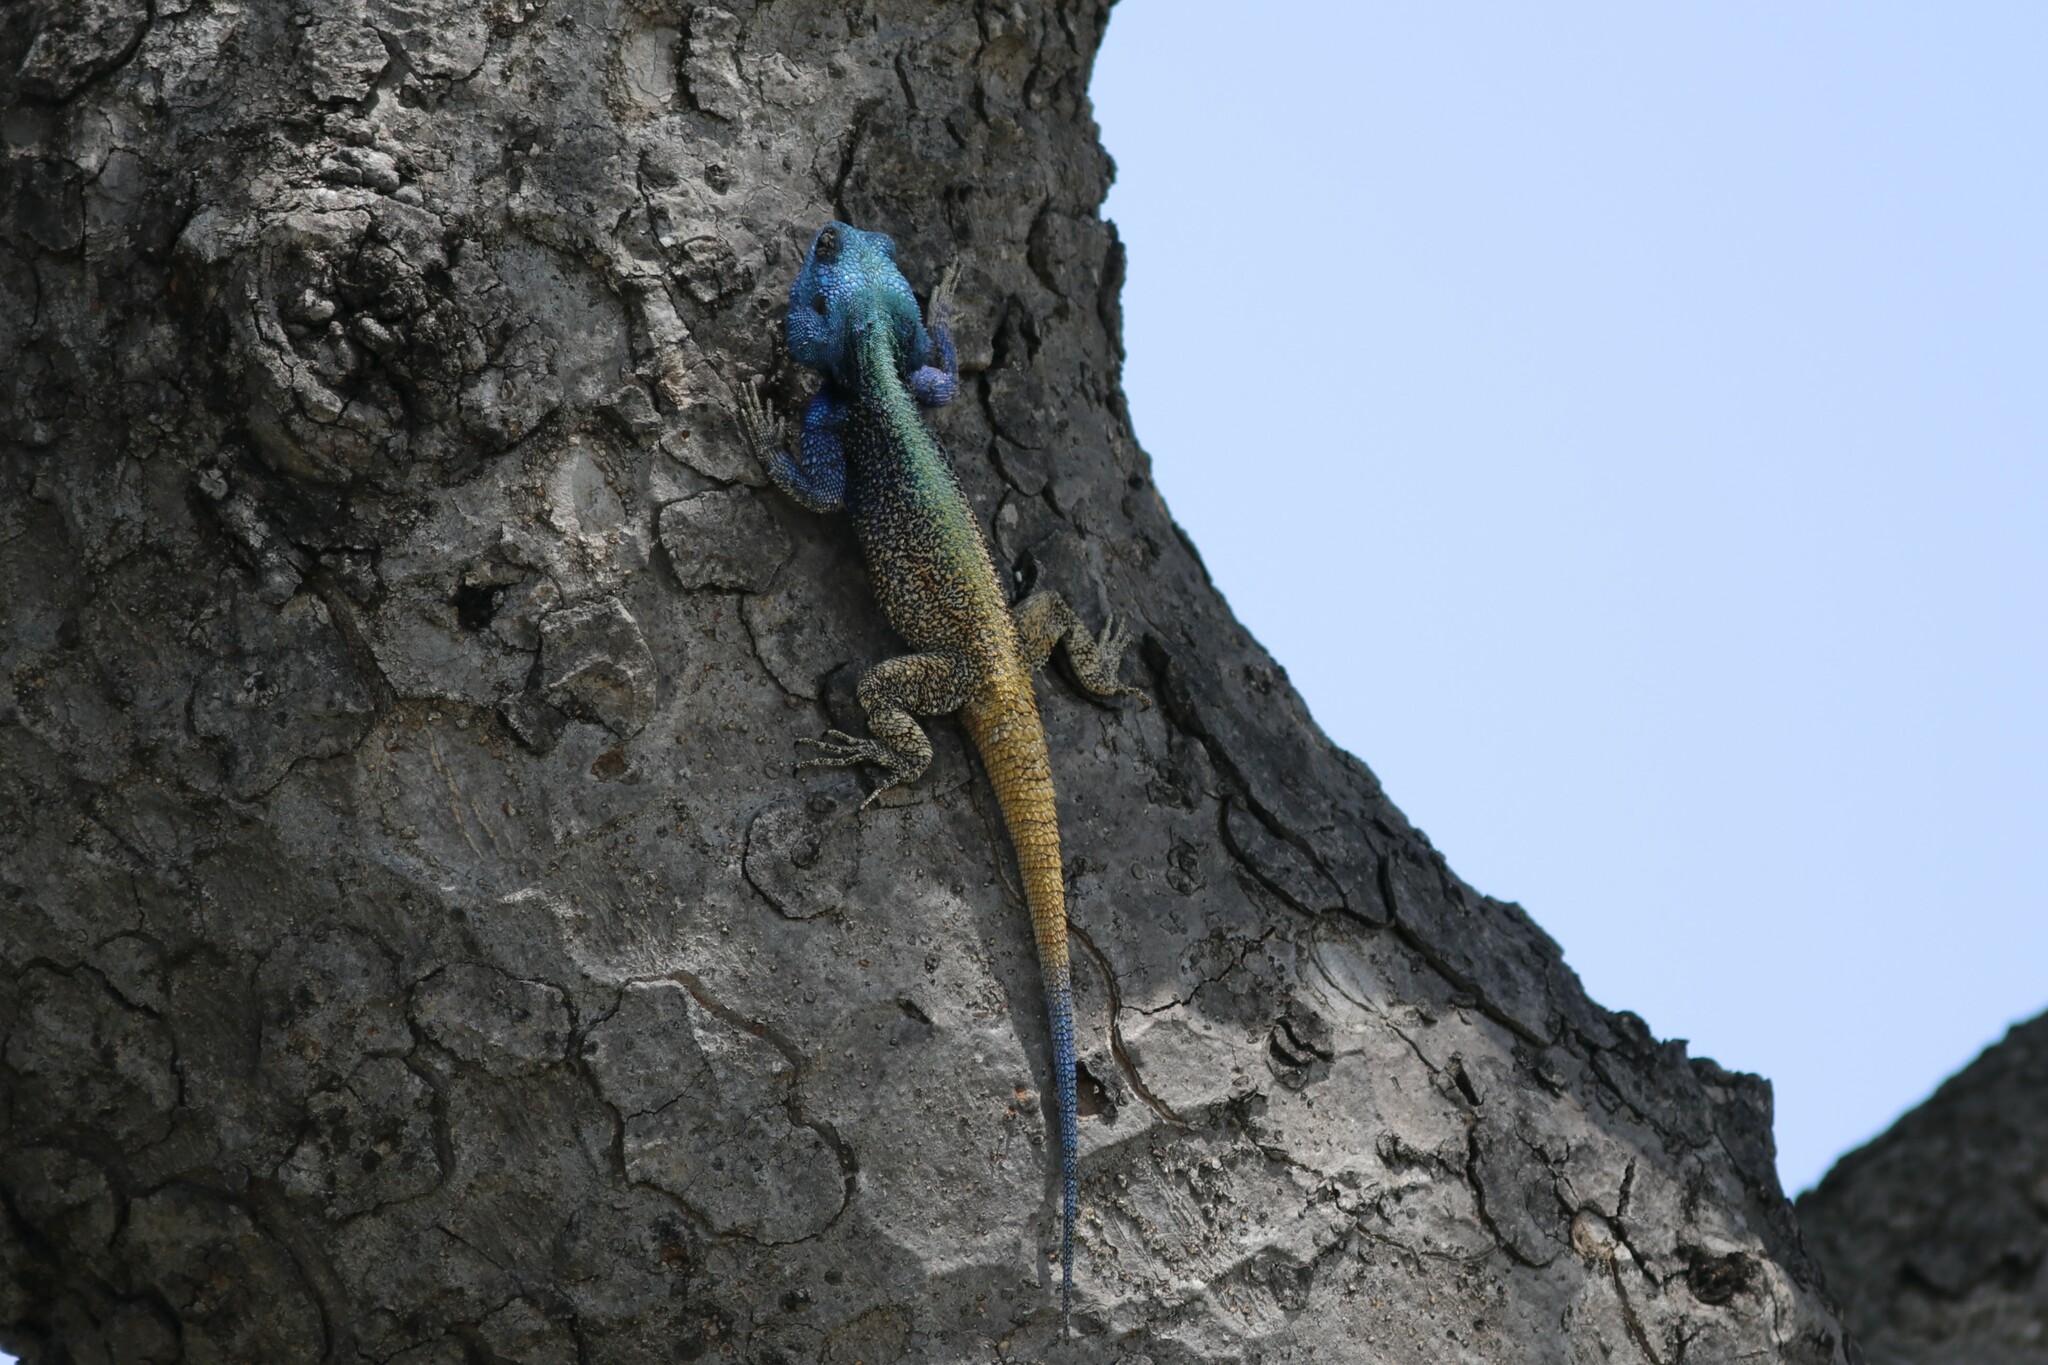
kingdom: Animalia
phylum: Chordata
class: Squamata
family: Agamidae
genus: Acanthocercus
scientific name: Acanthocercus atricollis
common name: Southern tree agama
